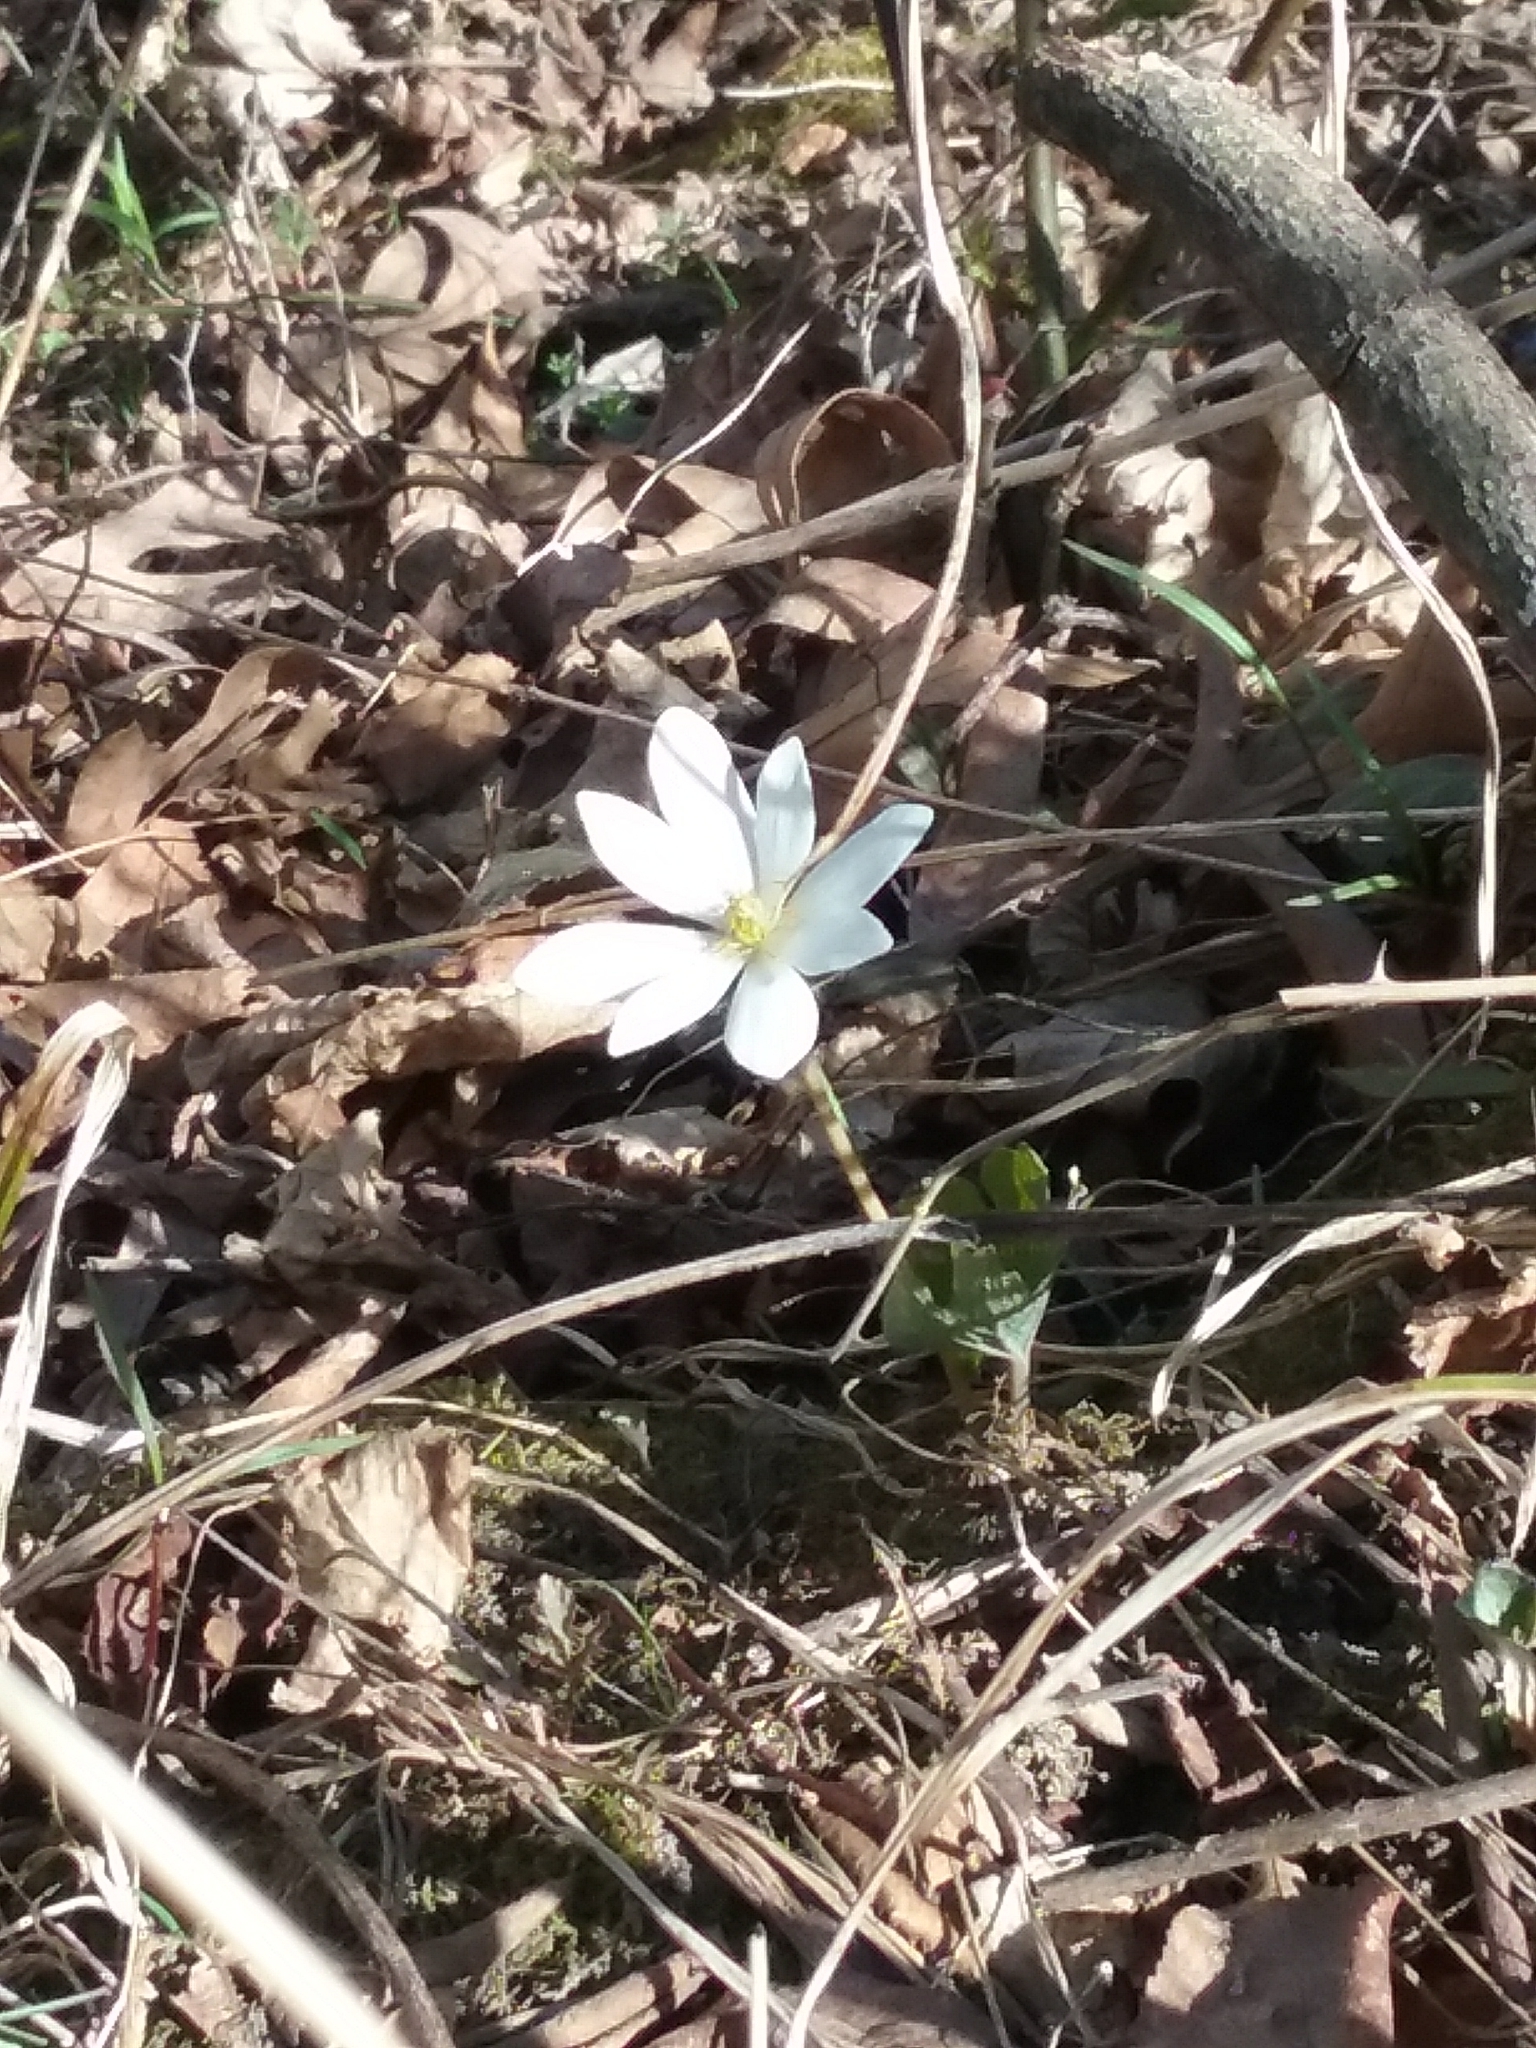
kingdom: Plantae
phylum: Tracheophyta
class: Magnoliopsida
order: Ranunculales
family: Papaveraceae
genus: Sanguinaria
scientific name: Sanguinaria canadensis
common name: Bloodroot
